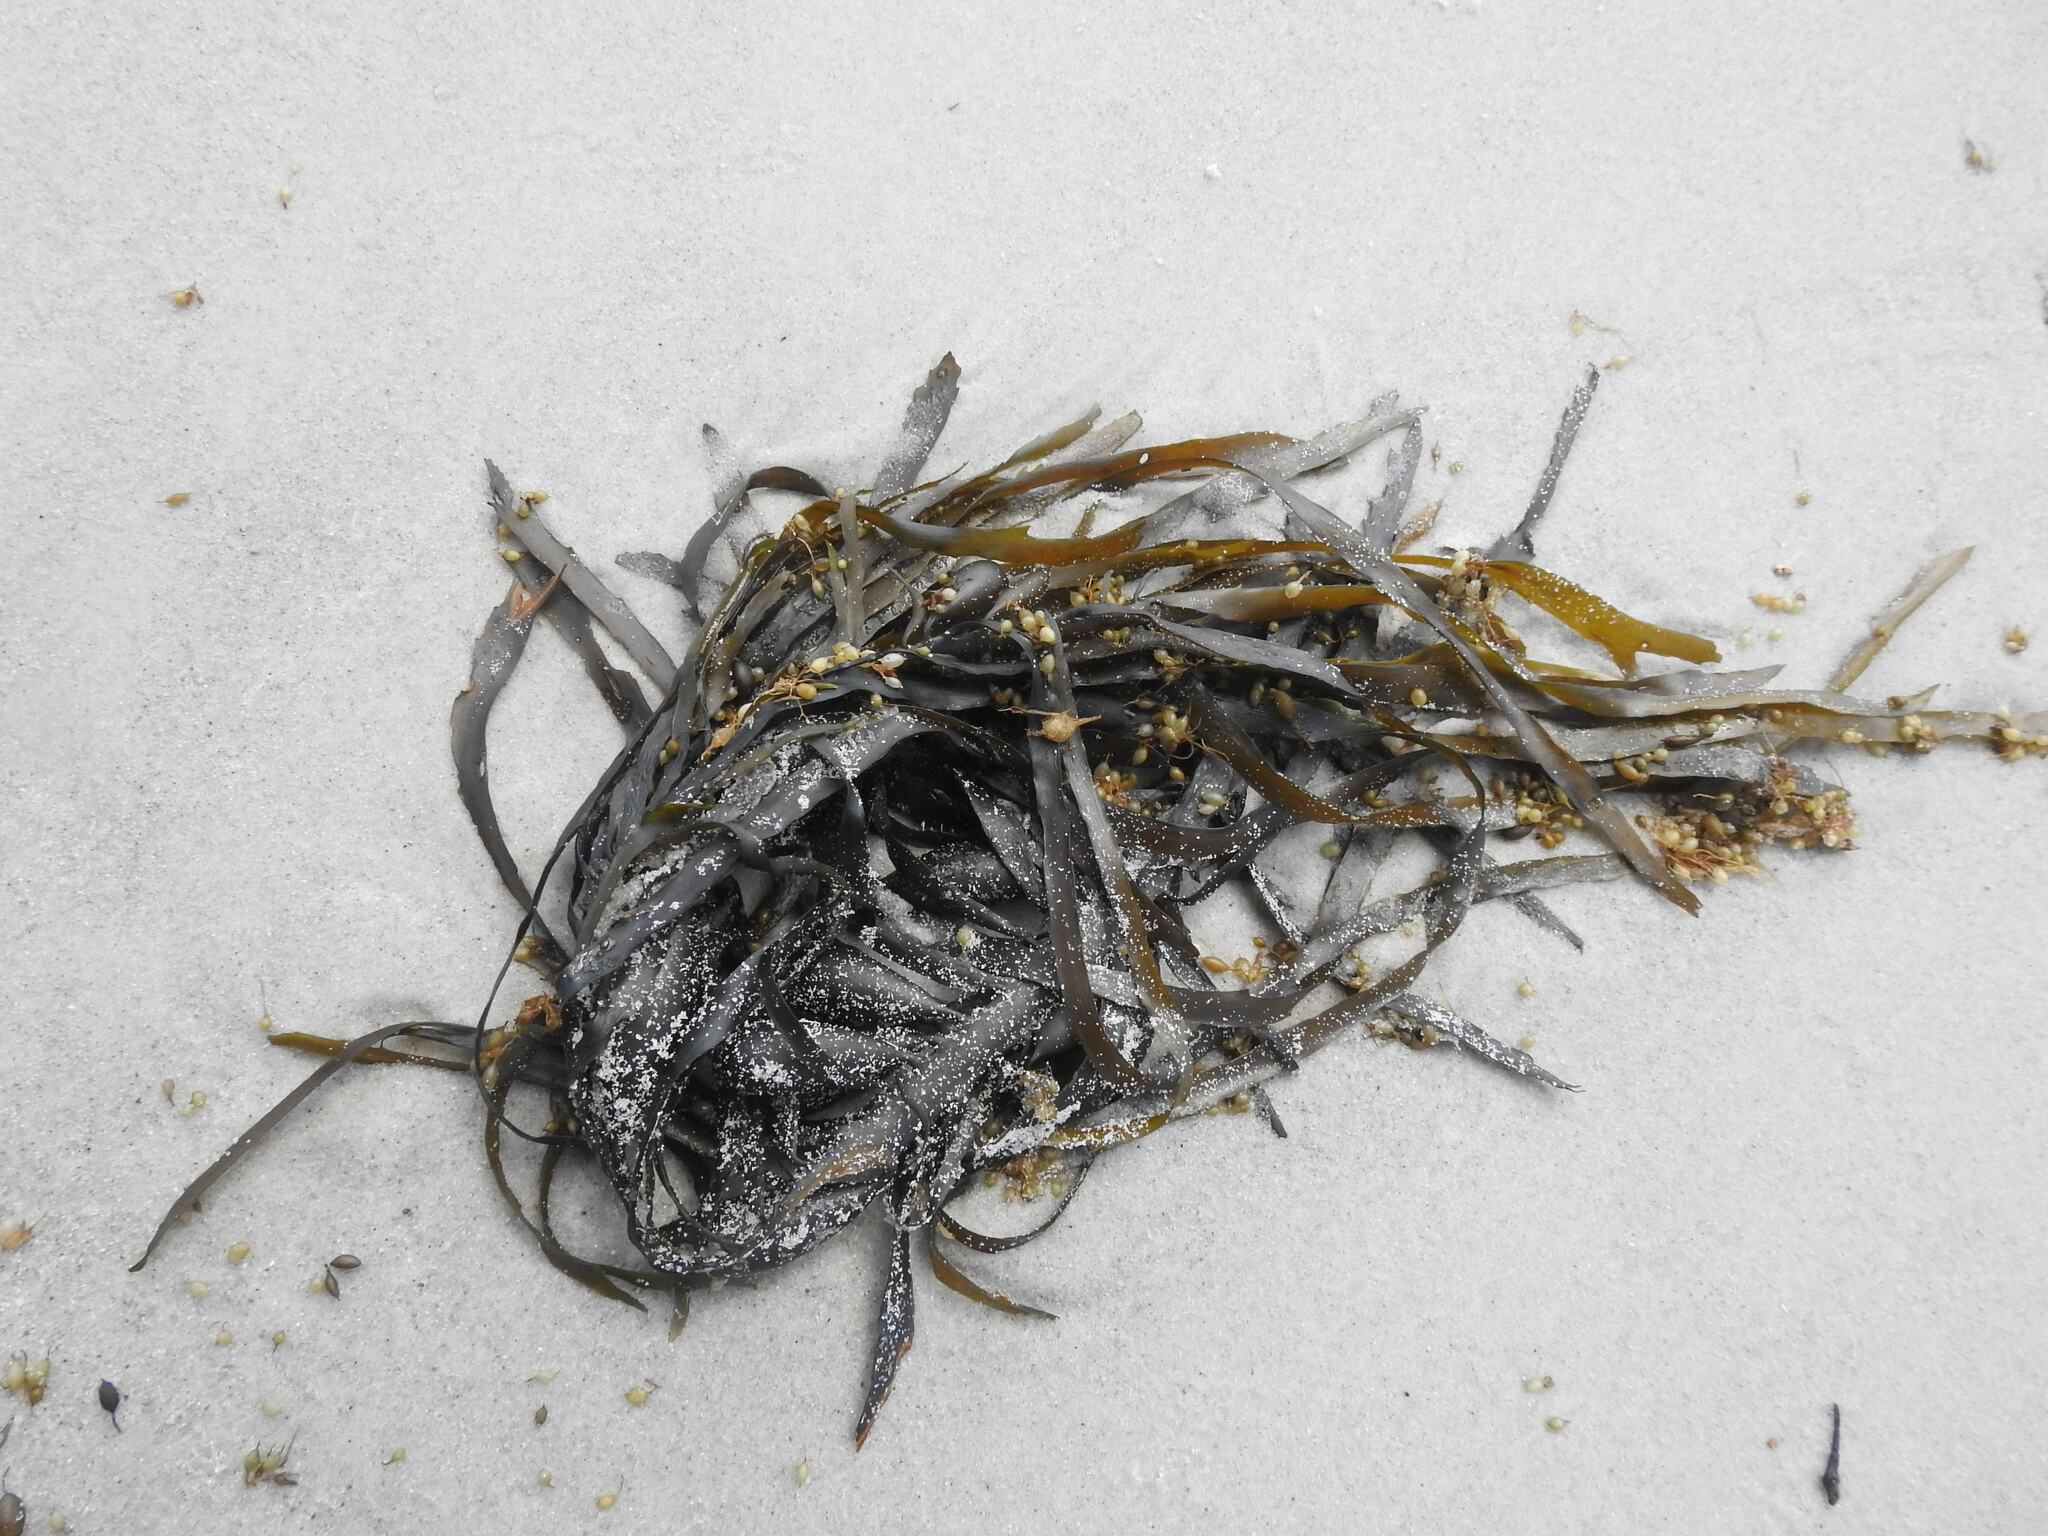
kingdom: Chromista
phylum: Ochrophyta
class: Phaeophyceae
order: Fucales
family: Seirococcaceae
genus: Phyllospora
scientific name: Phyllospora
